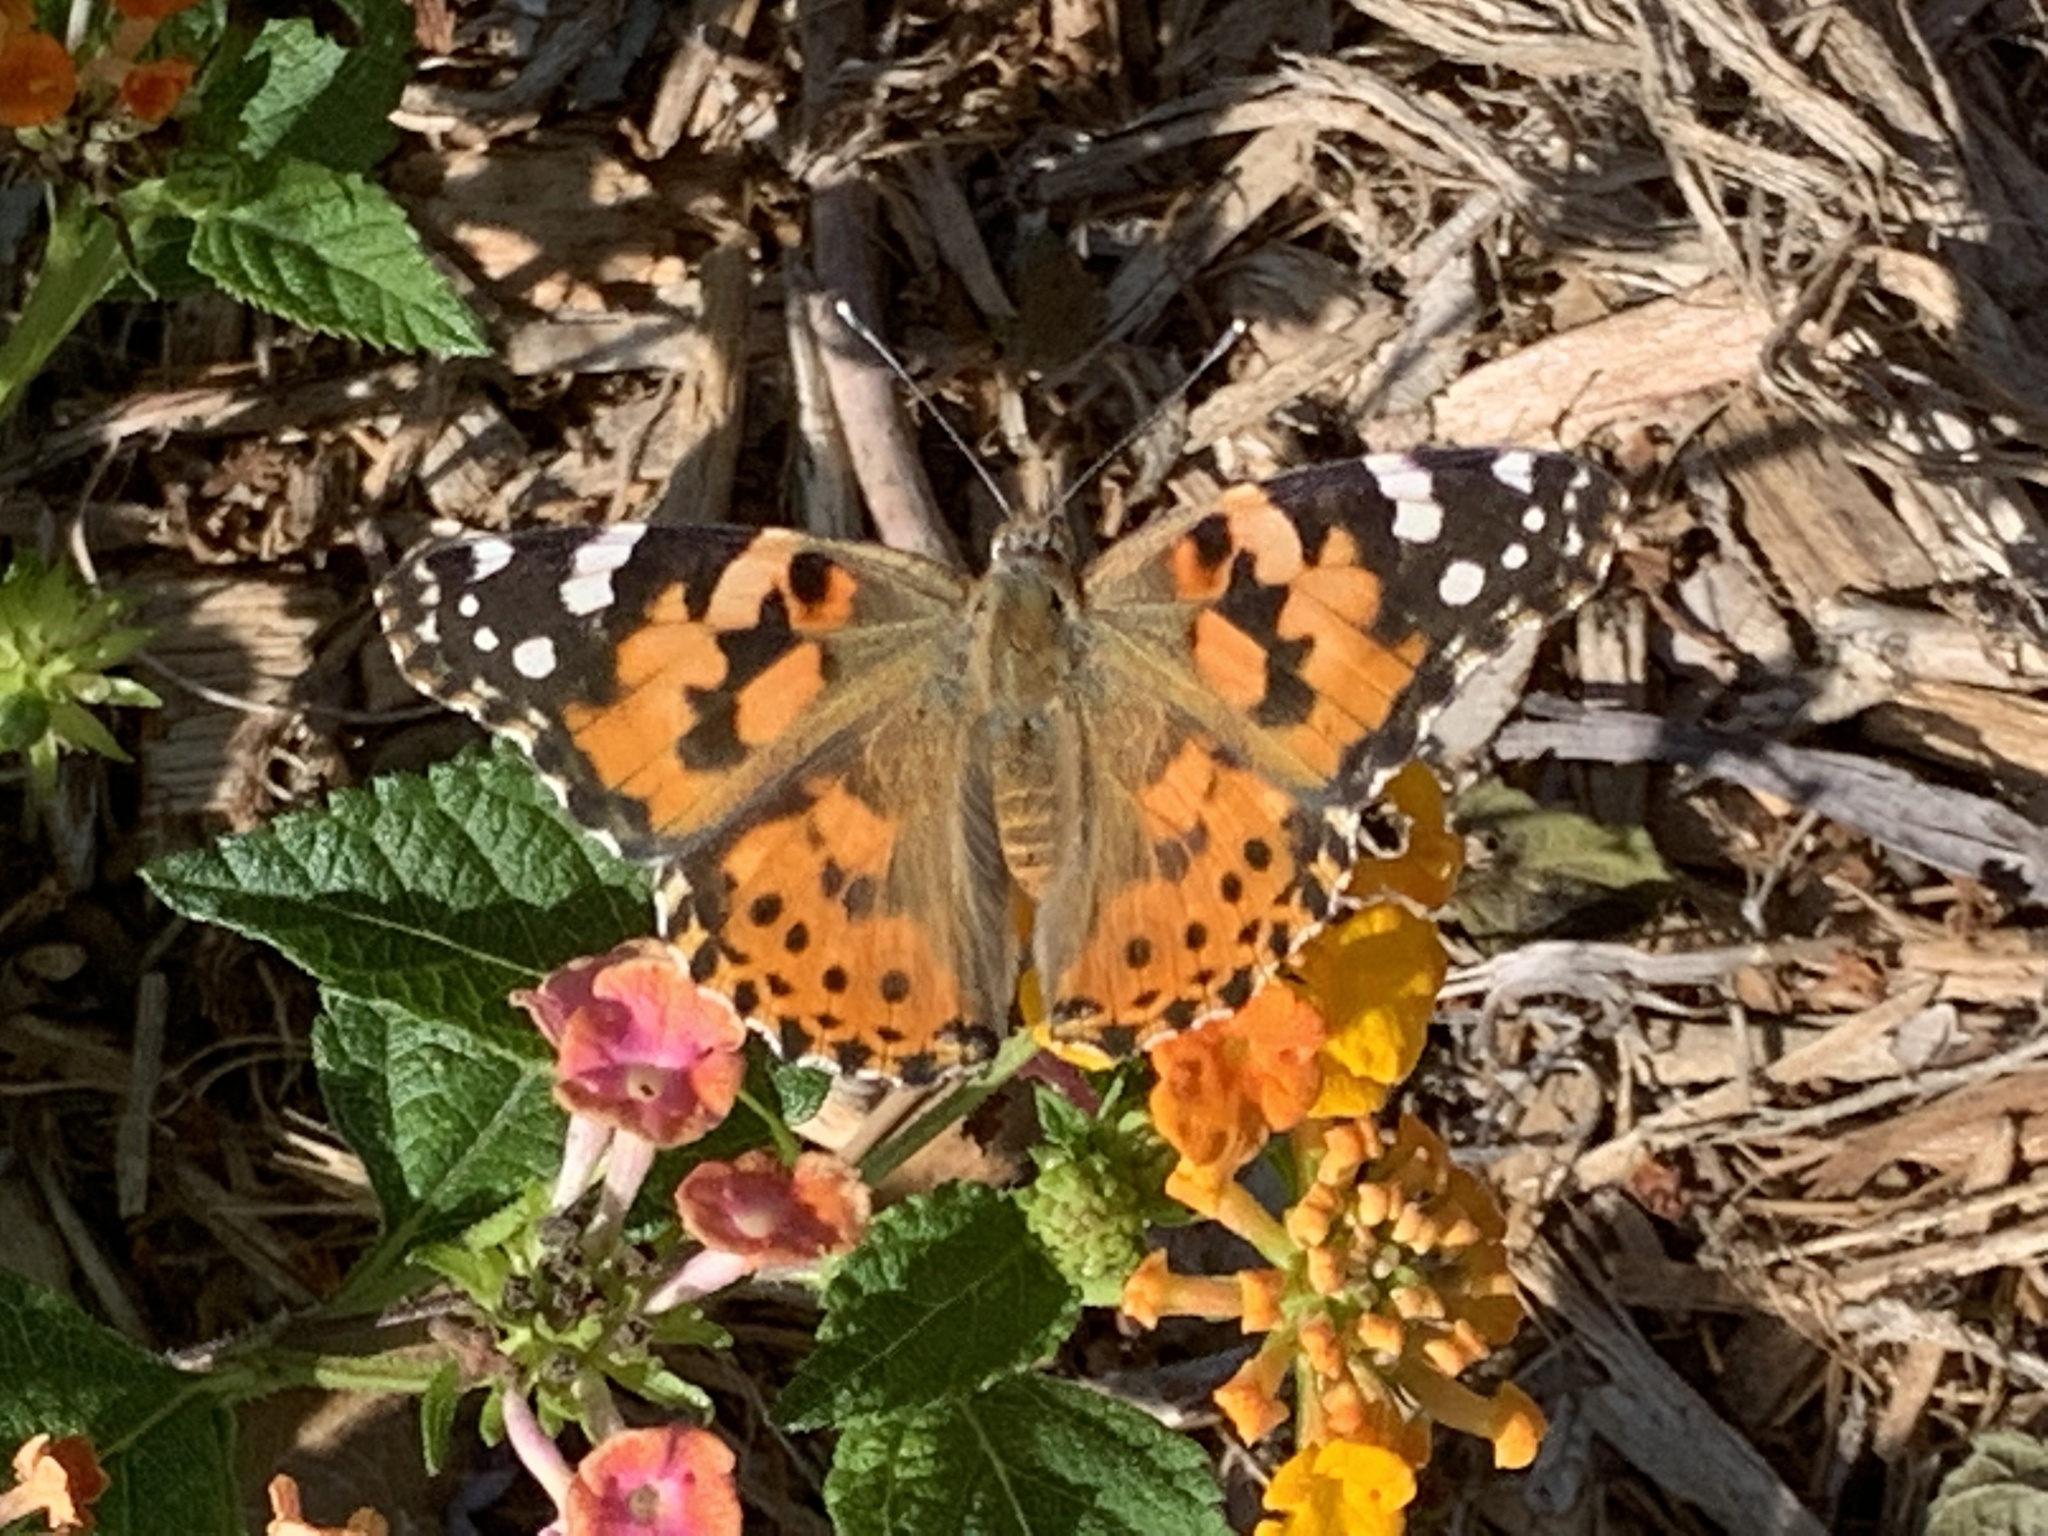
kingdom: Animalia
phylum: Arthropoda
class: Insecta
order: Lepidoptera
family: Nymphalidae
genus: Vanessa
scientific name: Vanessa cardui
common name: Painted lady
